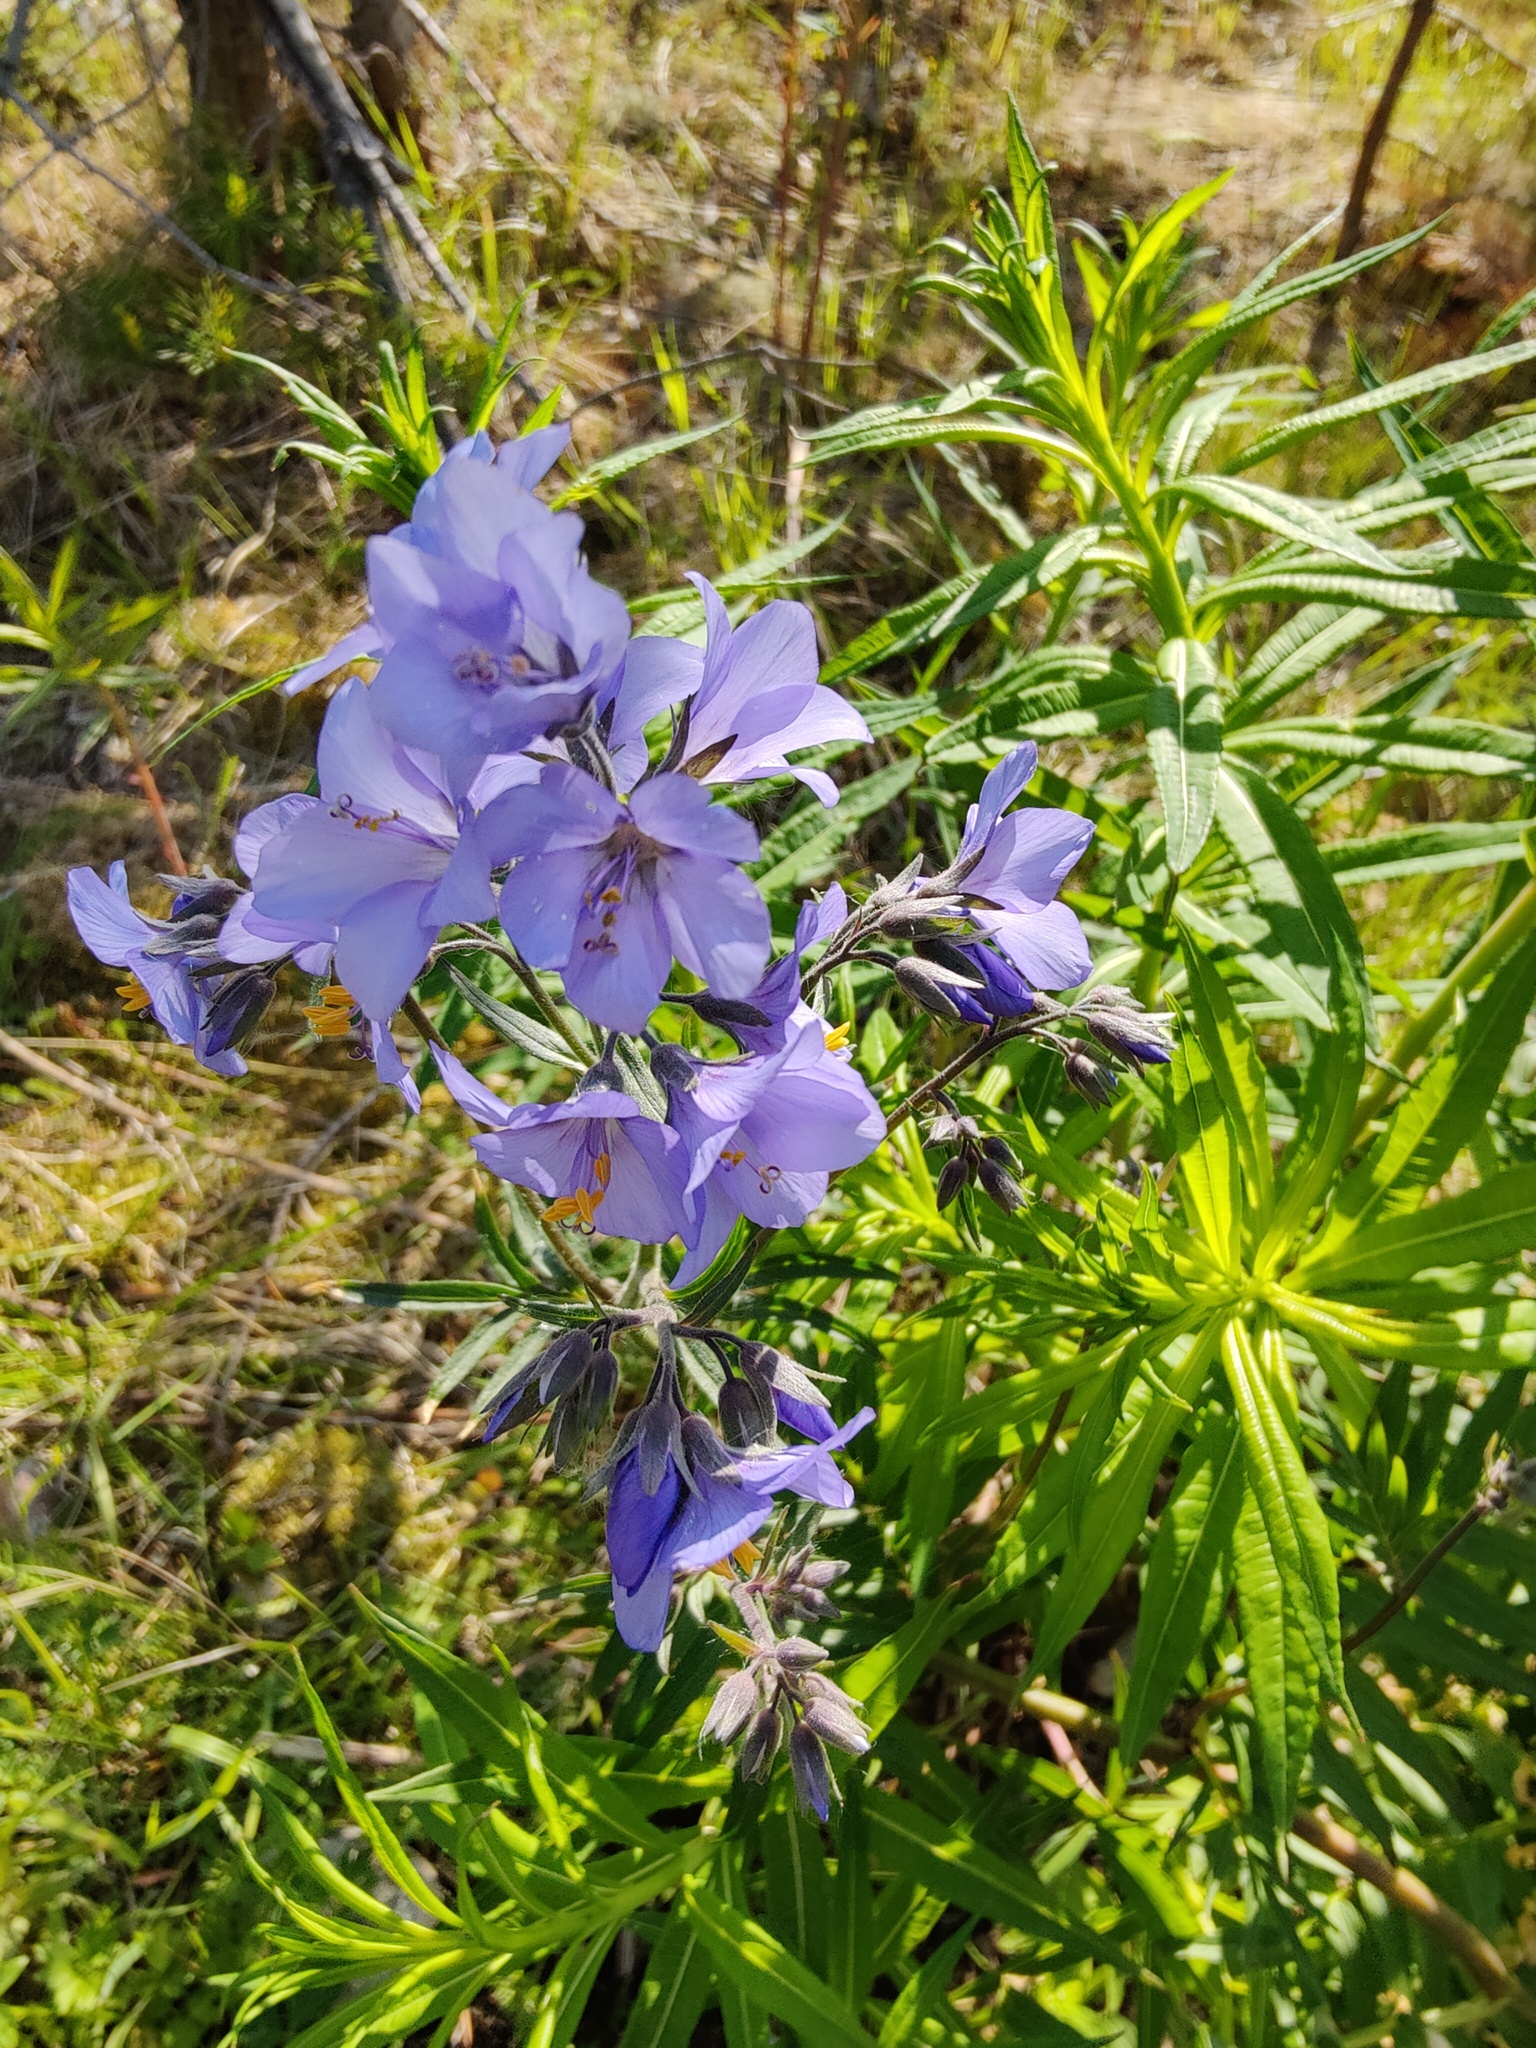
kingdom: Plantae
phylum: Tracheophyta
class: Magnoliopsida
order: Ericales
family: Polemoniaceae
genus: Polemonium
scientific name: Polemonium caeruleum
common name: Jacob's-ladder
